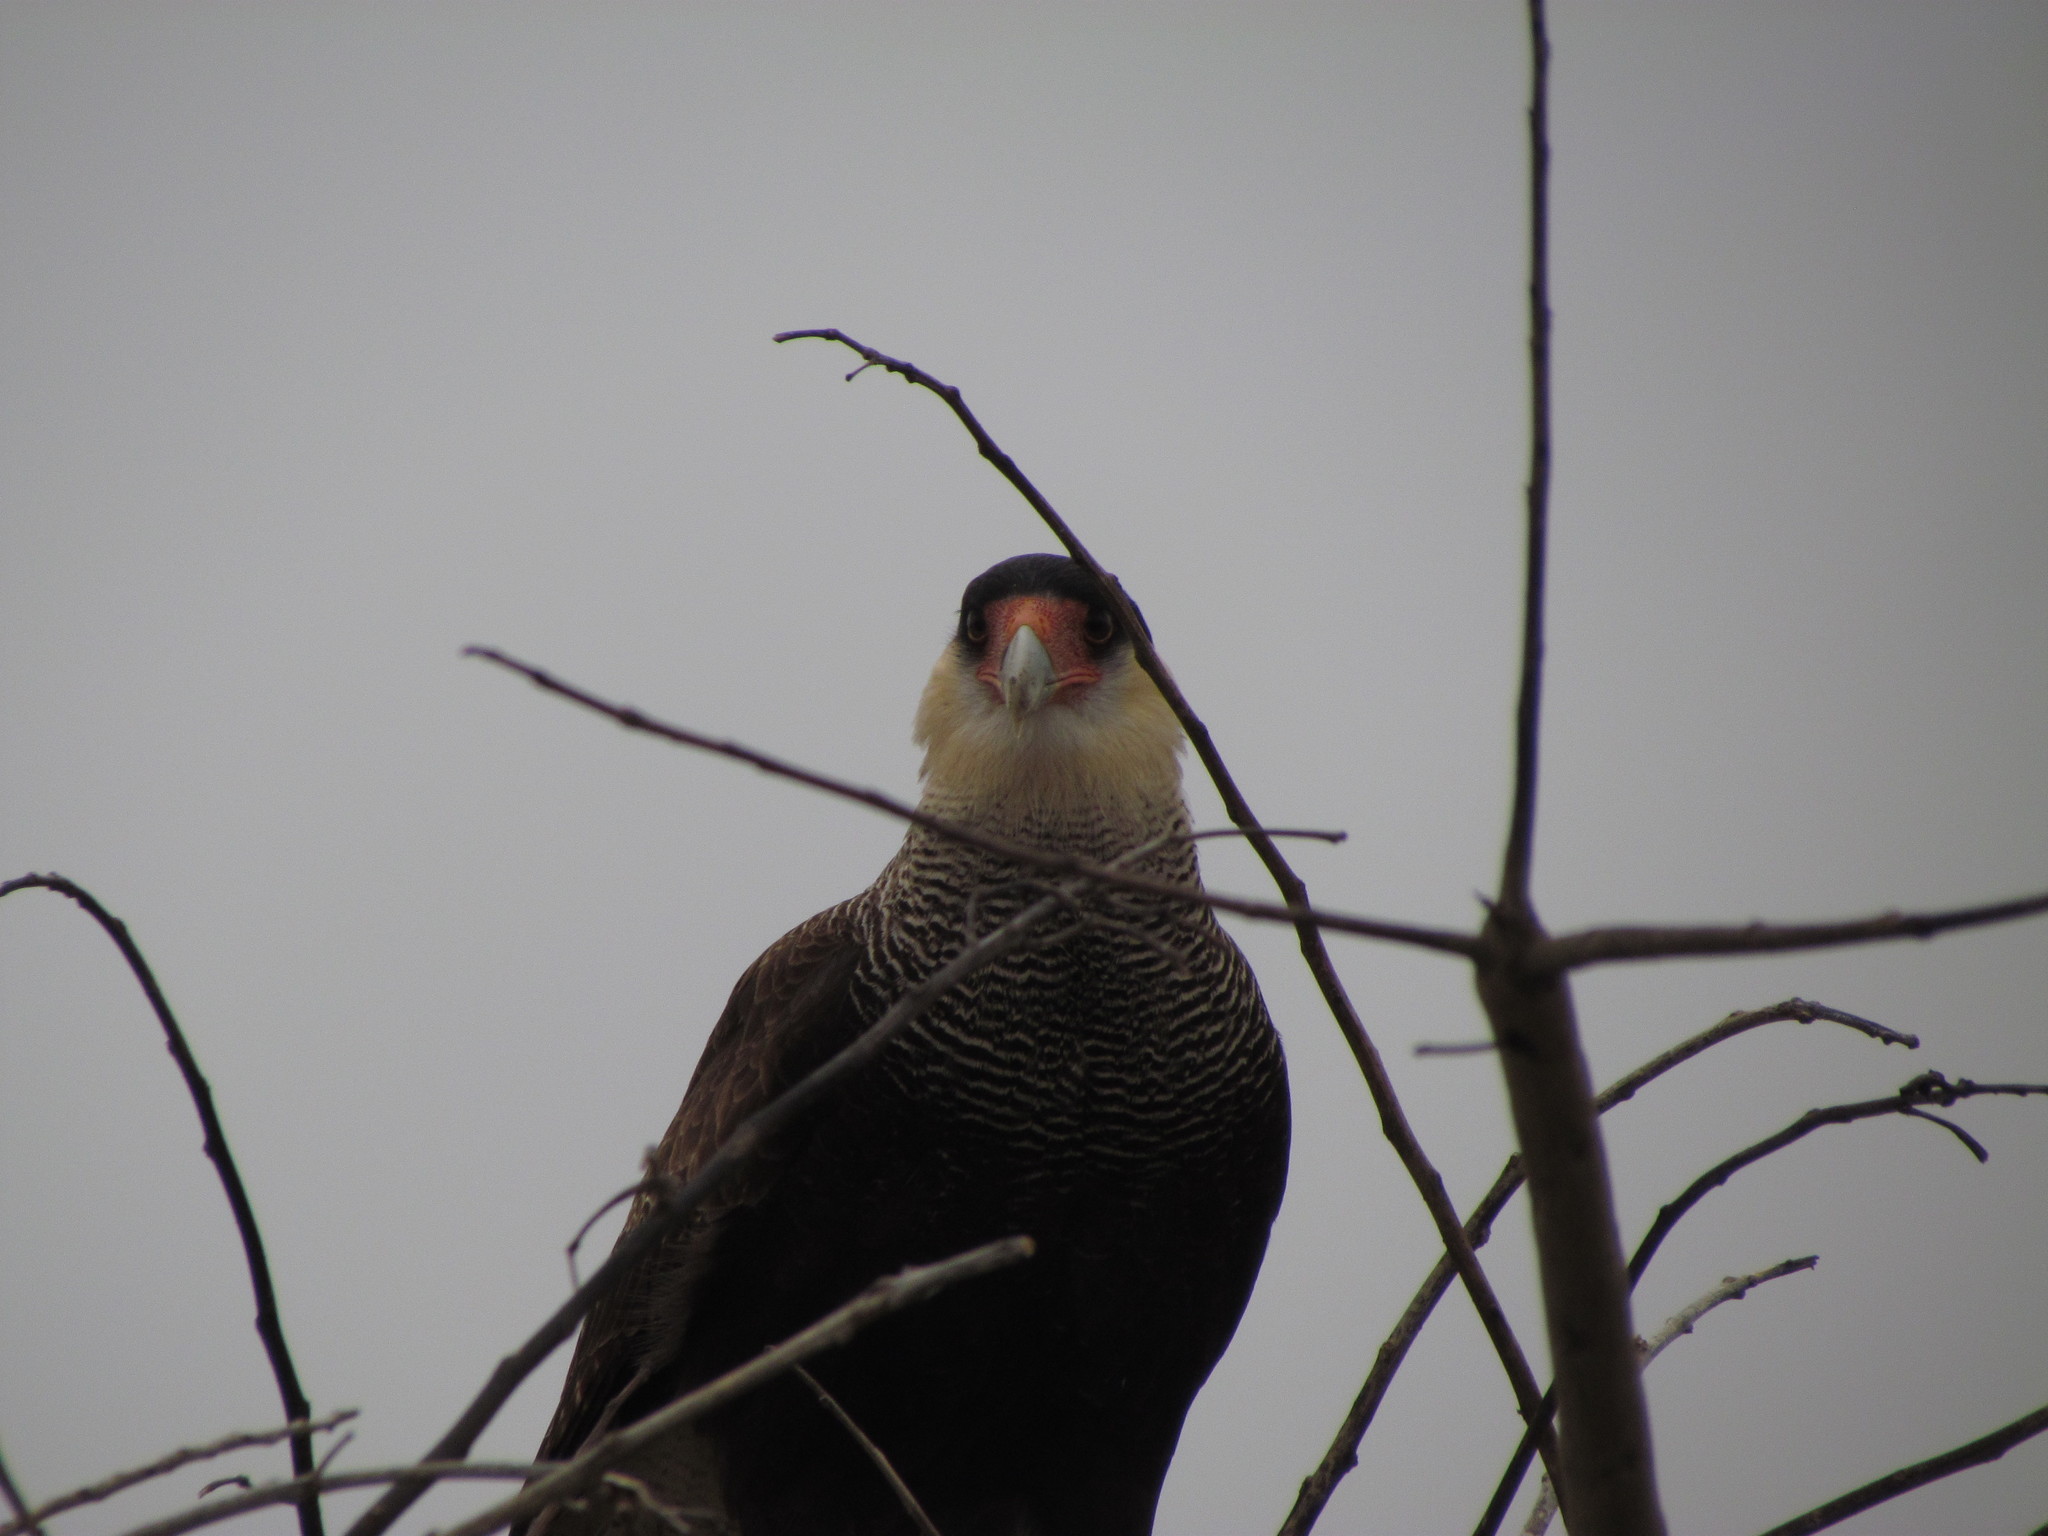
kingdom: Animalia
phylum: Chordata
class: Aves
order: Falconiformes
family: Falconidae
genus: Caracara
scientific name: Caracara plancus
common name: Southern caracara
